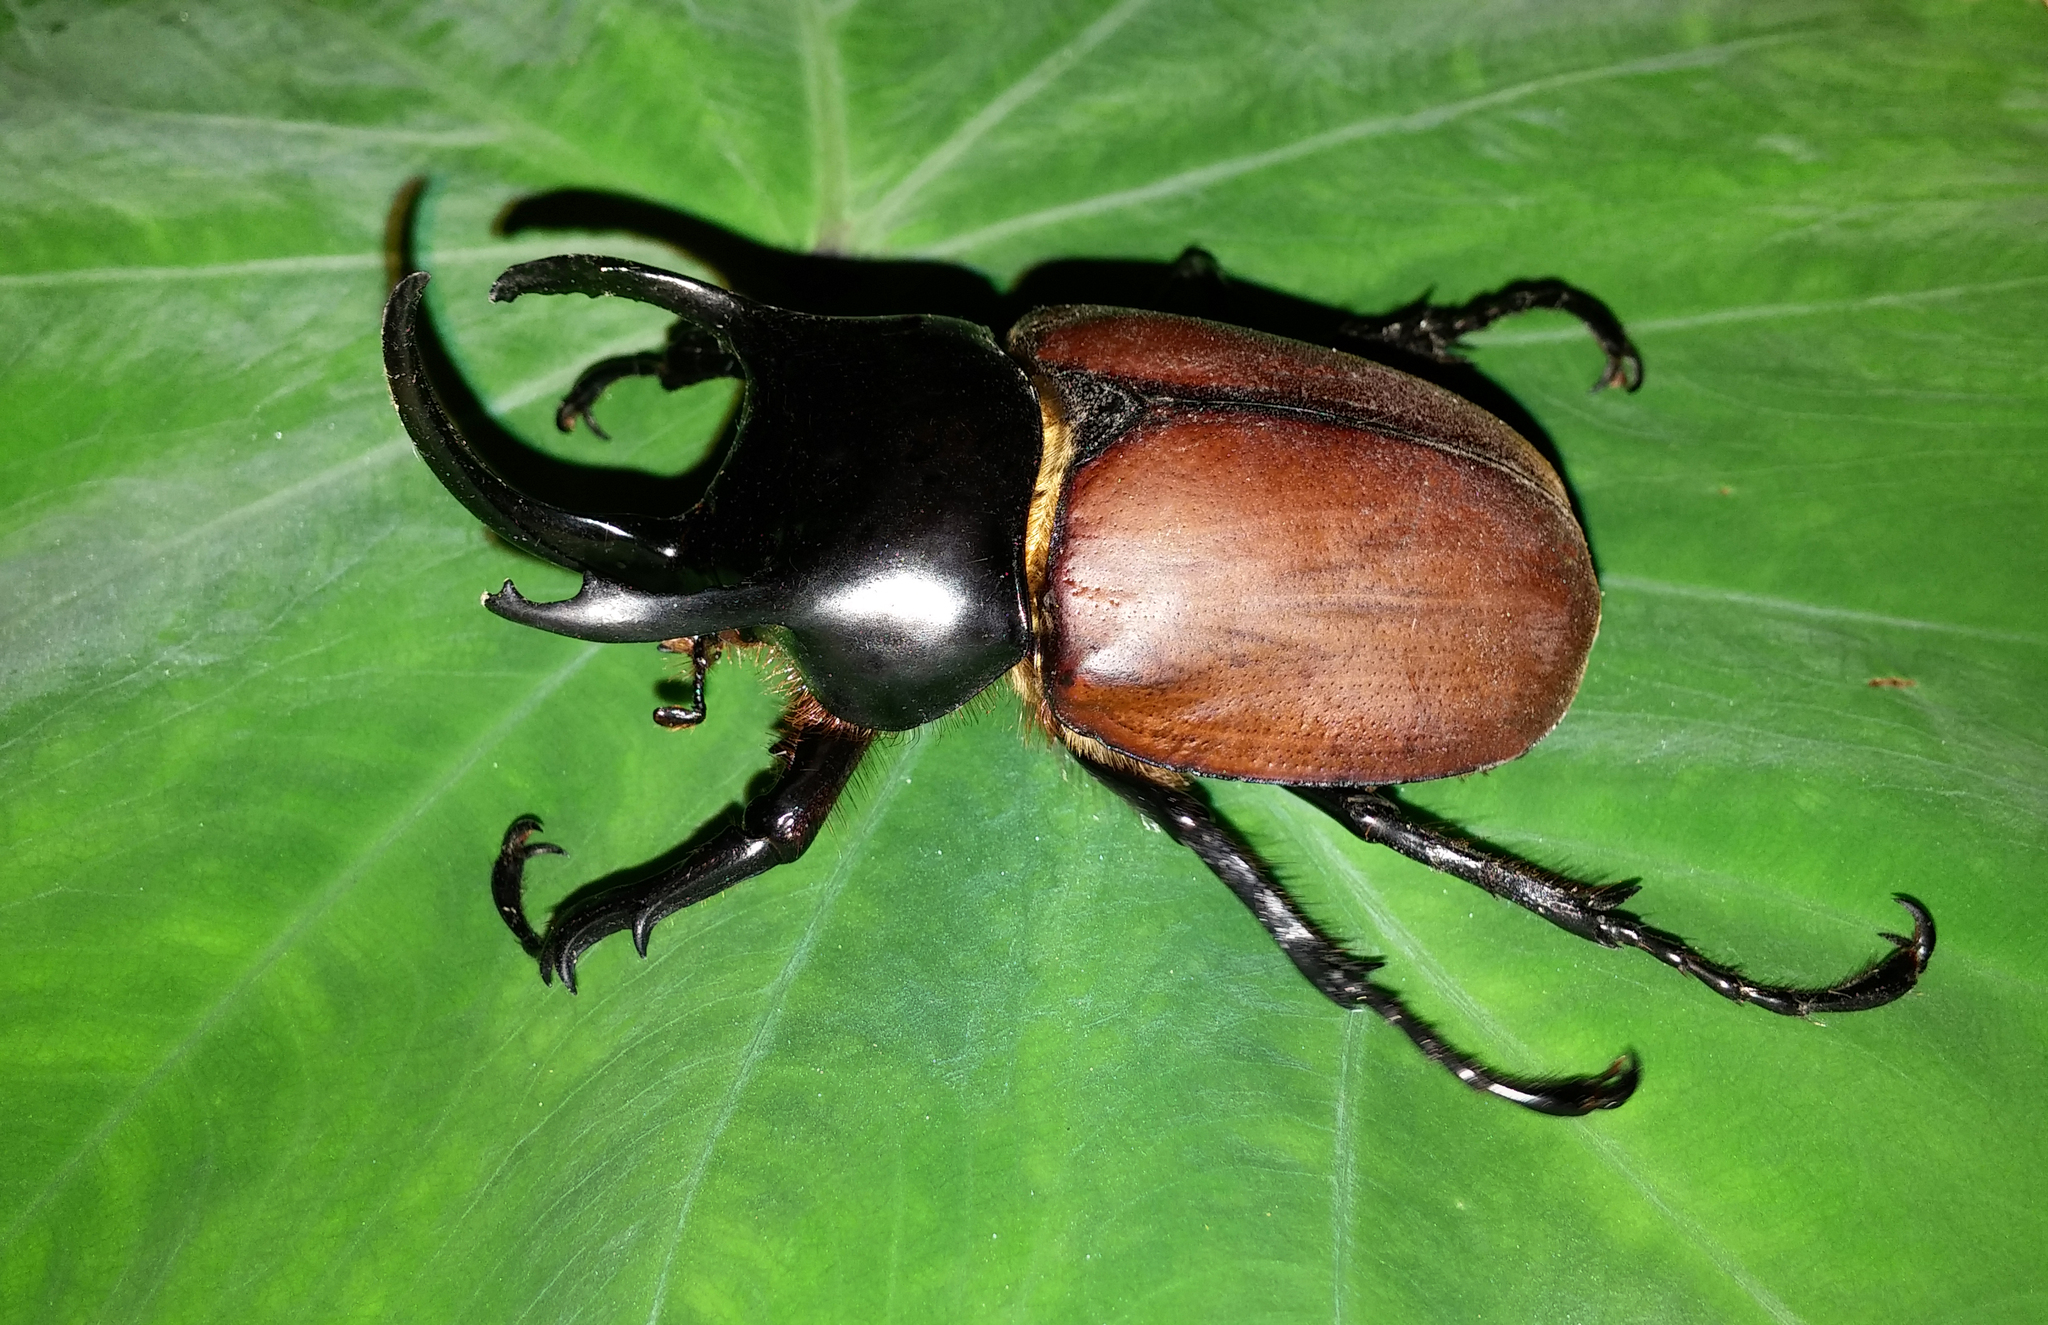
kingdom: Animalia
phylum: Arthropoda
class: Insecta
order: Coleoptera
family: Scarabaeidae
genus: Debeckius
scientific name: Debeckius beccarii
